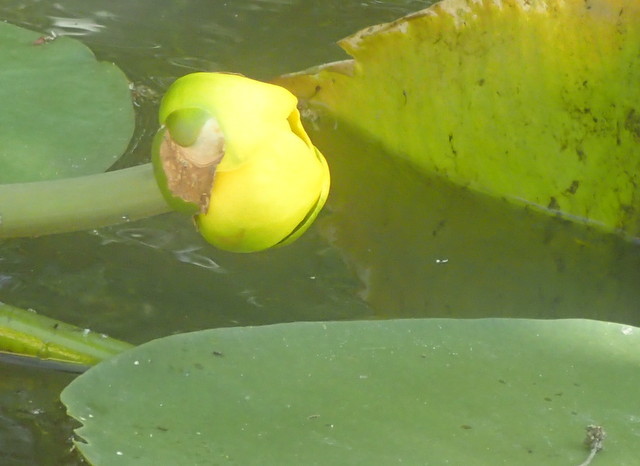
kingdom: Plantae
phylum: Tracheophyta
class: Magnoliopsida
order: Nymphaeales
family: Nymphaeaceae
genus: Nuphar
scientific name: Nuphar advena
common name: Spatter-dock
